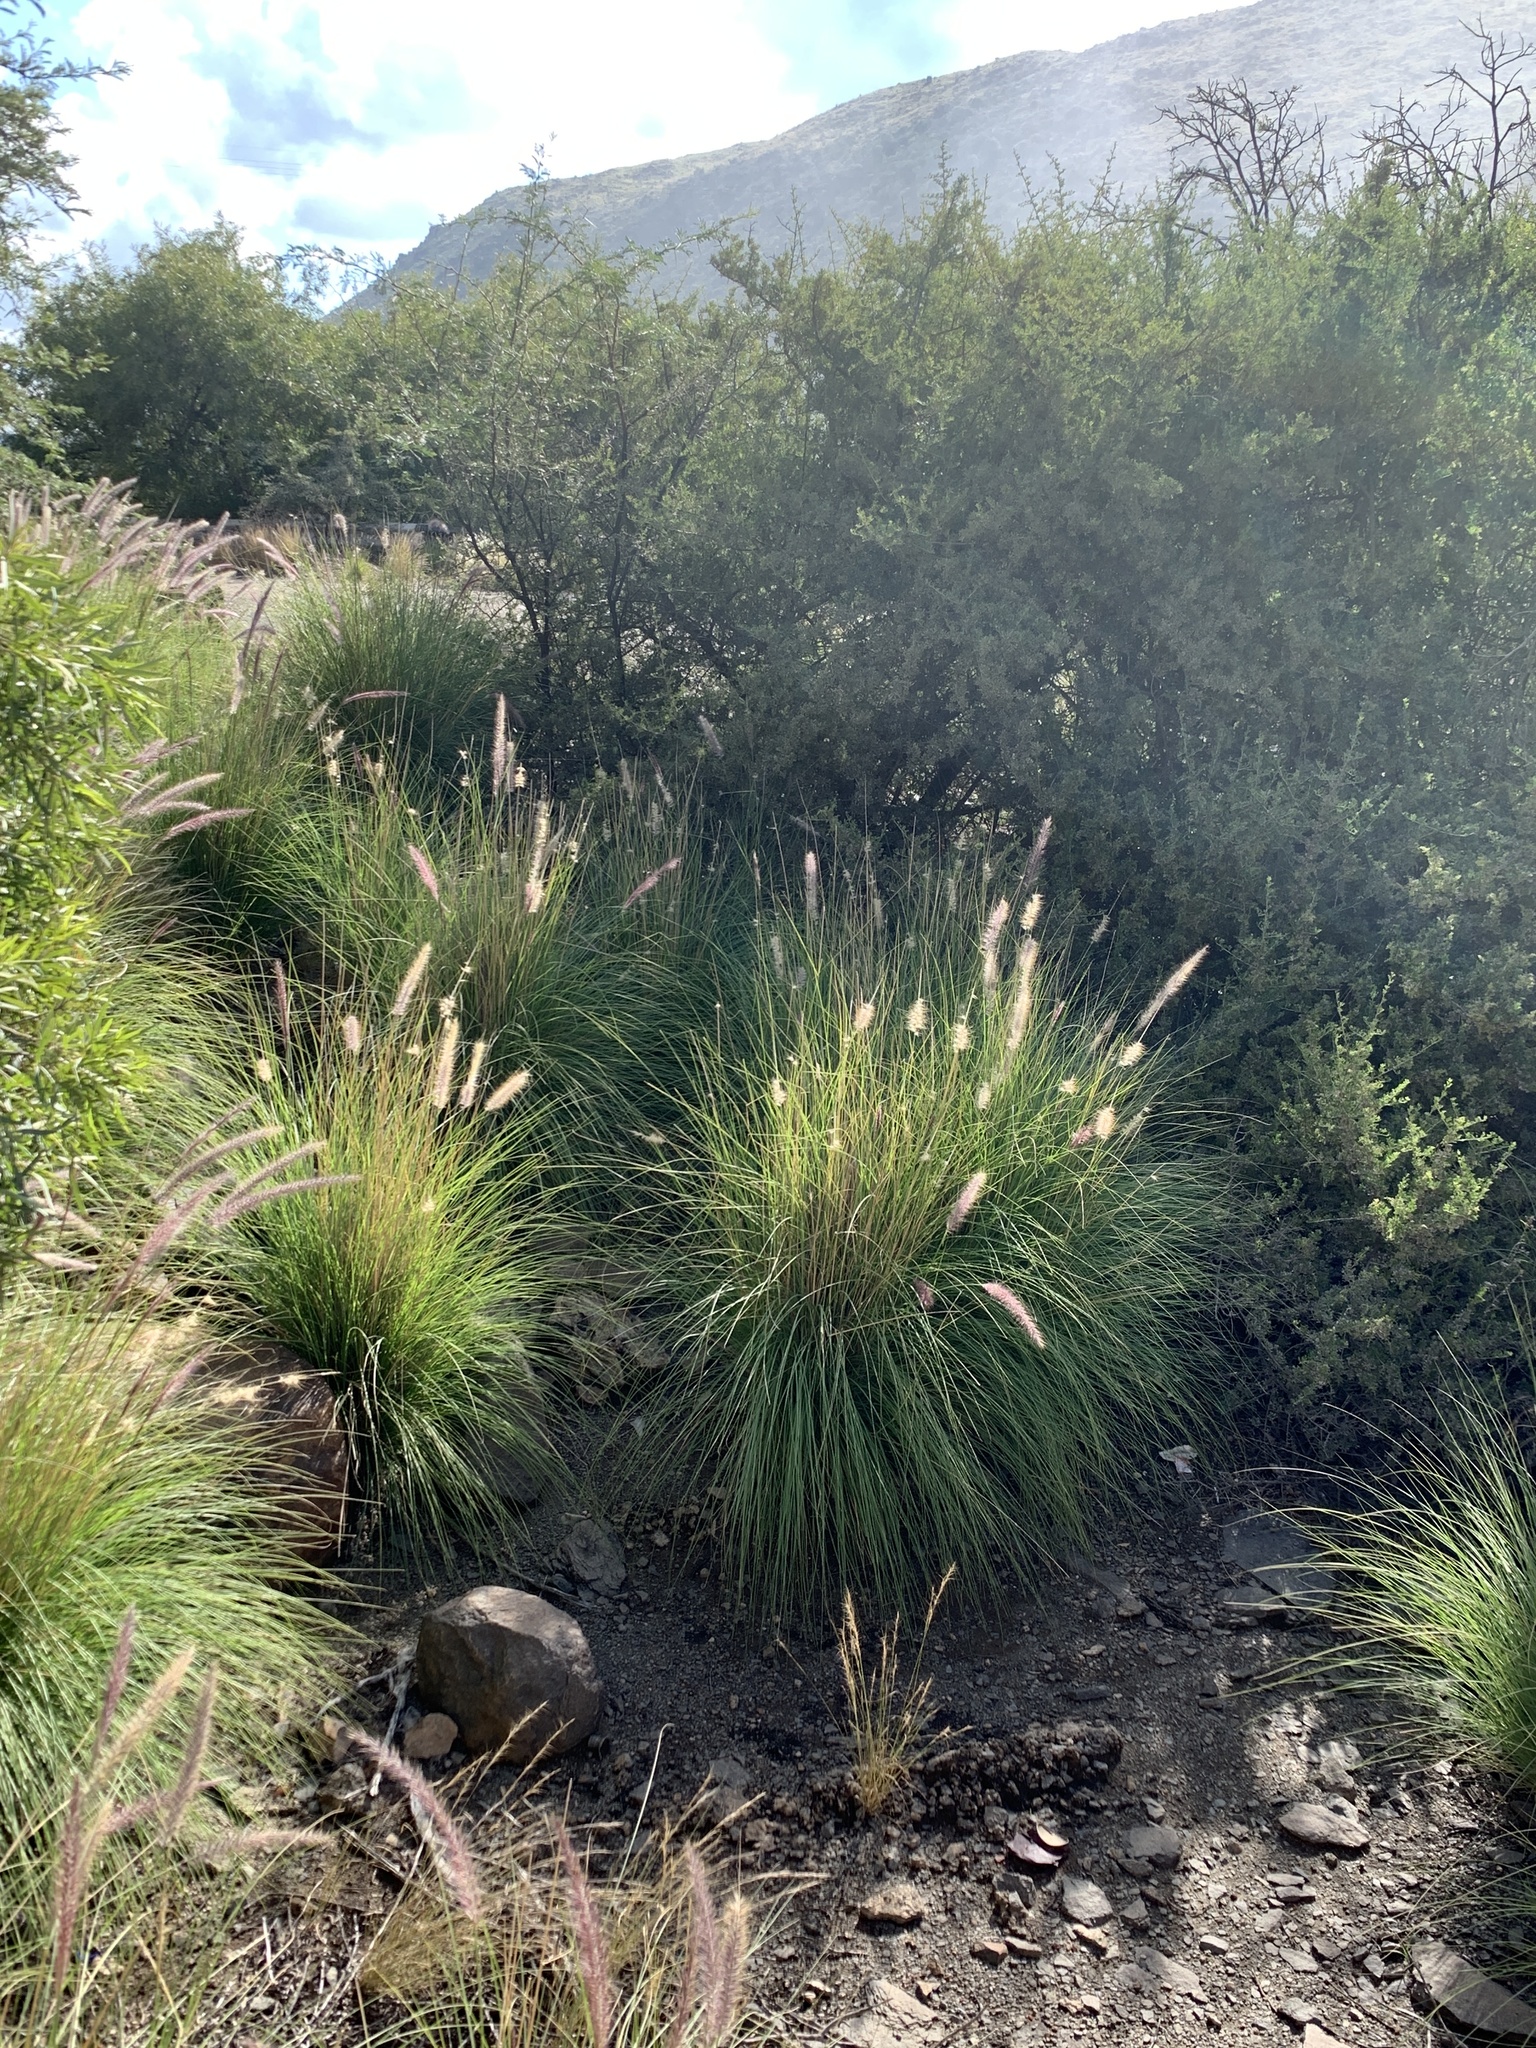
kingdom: Plantae
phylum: Tracheophyta
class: Liliopsida
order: Poales
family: Poaceae
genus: Cenchrus
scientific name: Cenchrus setaceus
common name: Crimson fountaingrass
